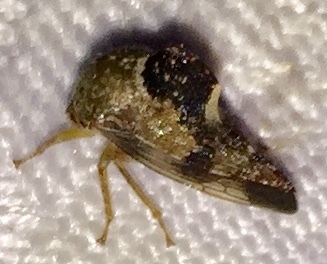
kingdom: Animalia
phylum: Arthropoda
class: Insecta
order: Hemiptera
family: Membracidae
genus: Telamona
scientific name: Telamona decorata
